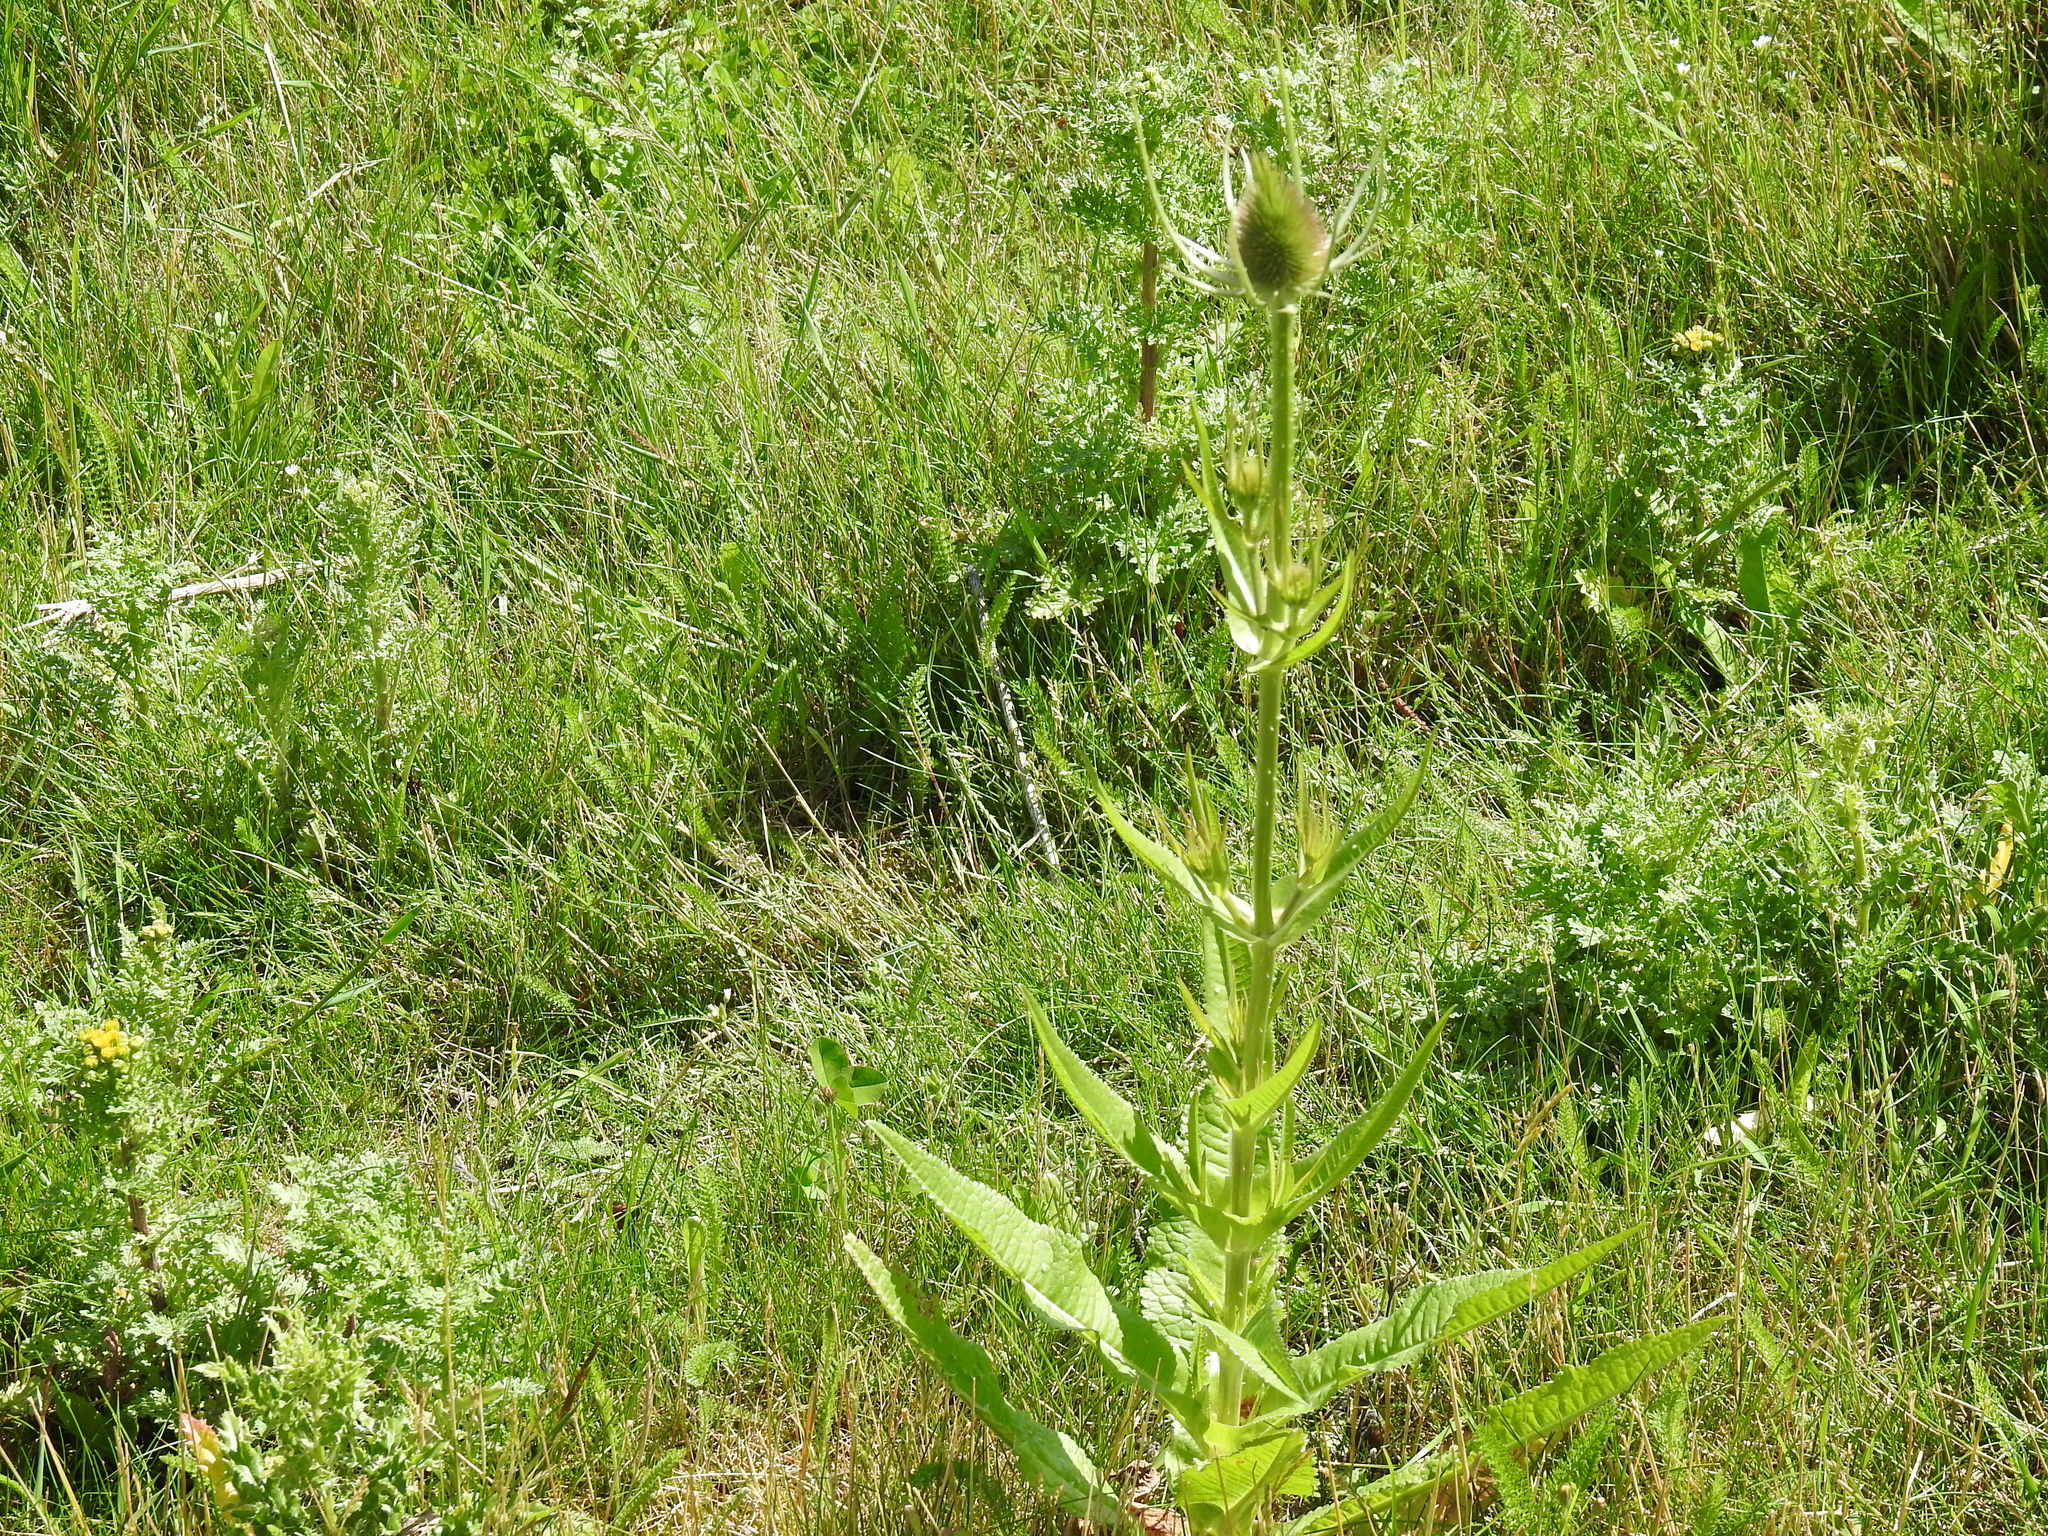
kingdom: Plantae
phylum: Tracheophyta
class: Magnoliopsida
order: Dipsacales
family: Caprifoliaceae
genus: Dipsacus
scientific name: Dipsacus fullonum
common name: Teasel
